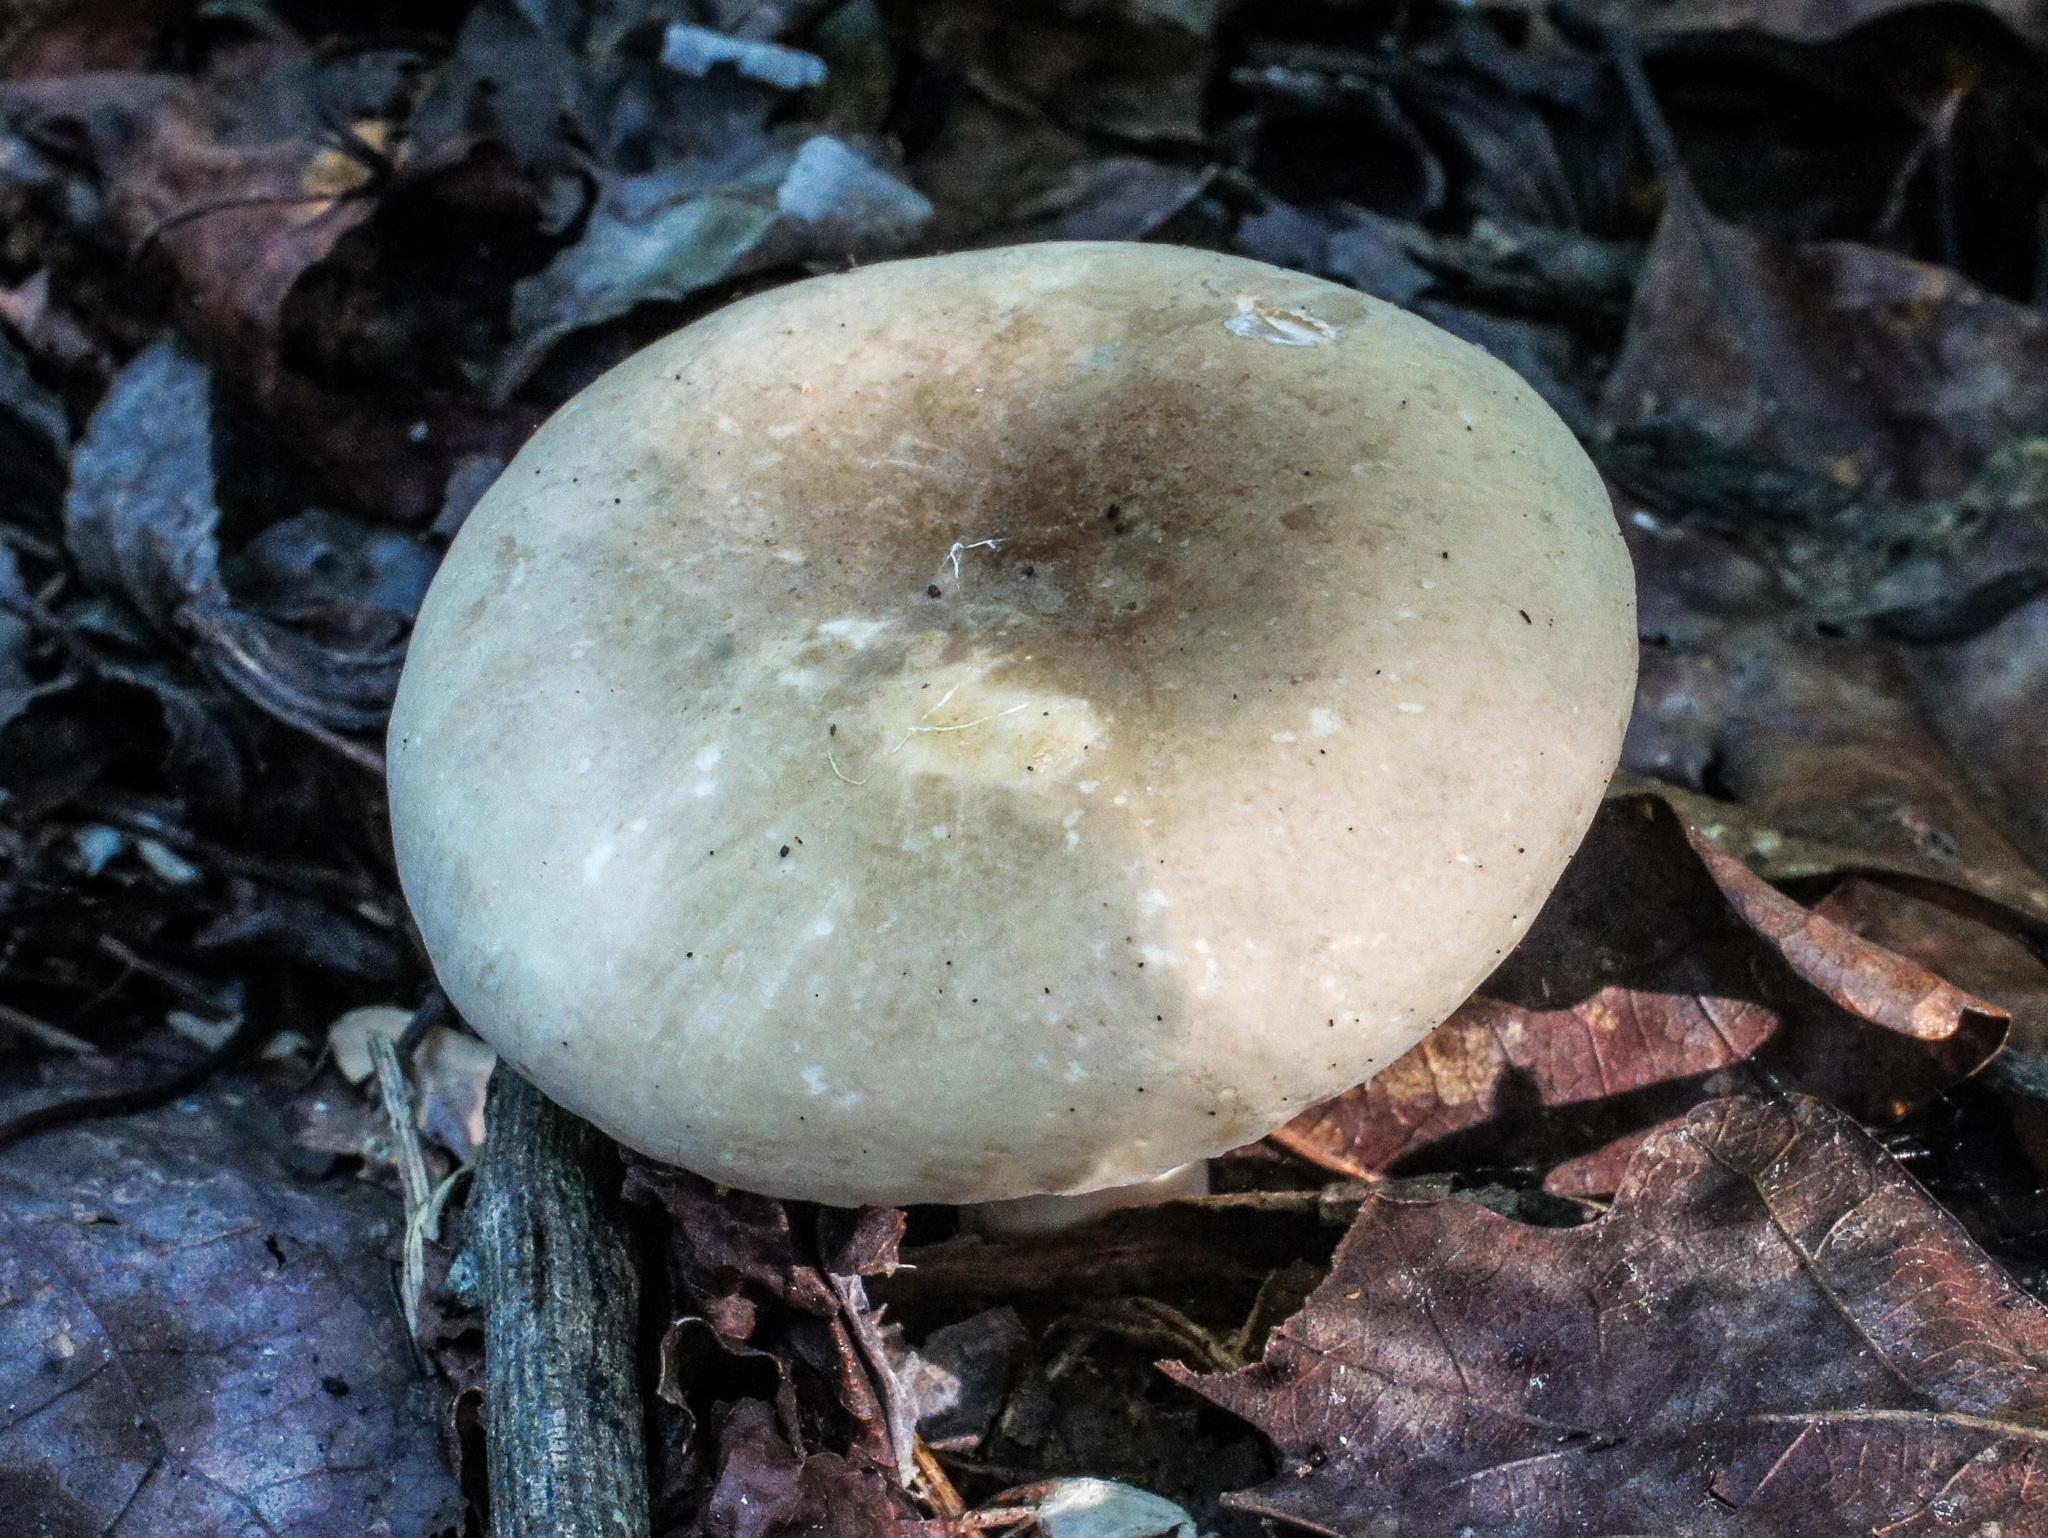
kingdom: Fungi
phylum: Basidiomycota
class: Agaricomycetes
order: Russulales
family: Russulaceae
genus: Lactarius
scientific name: Lactarius gerardii
